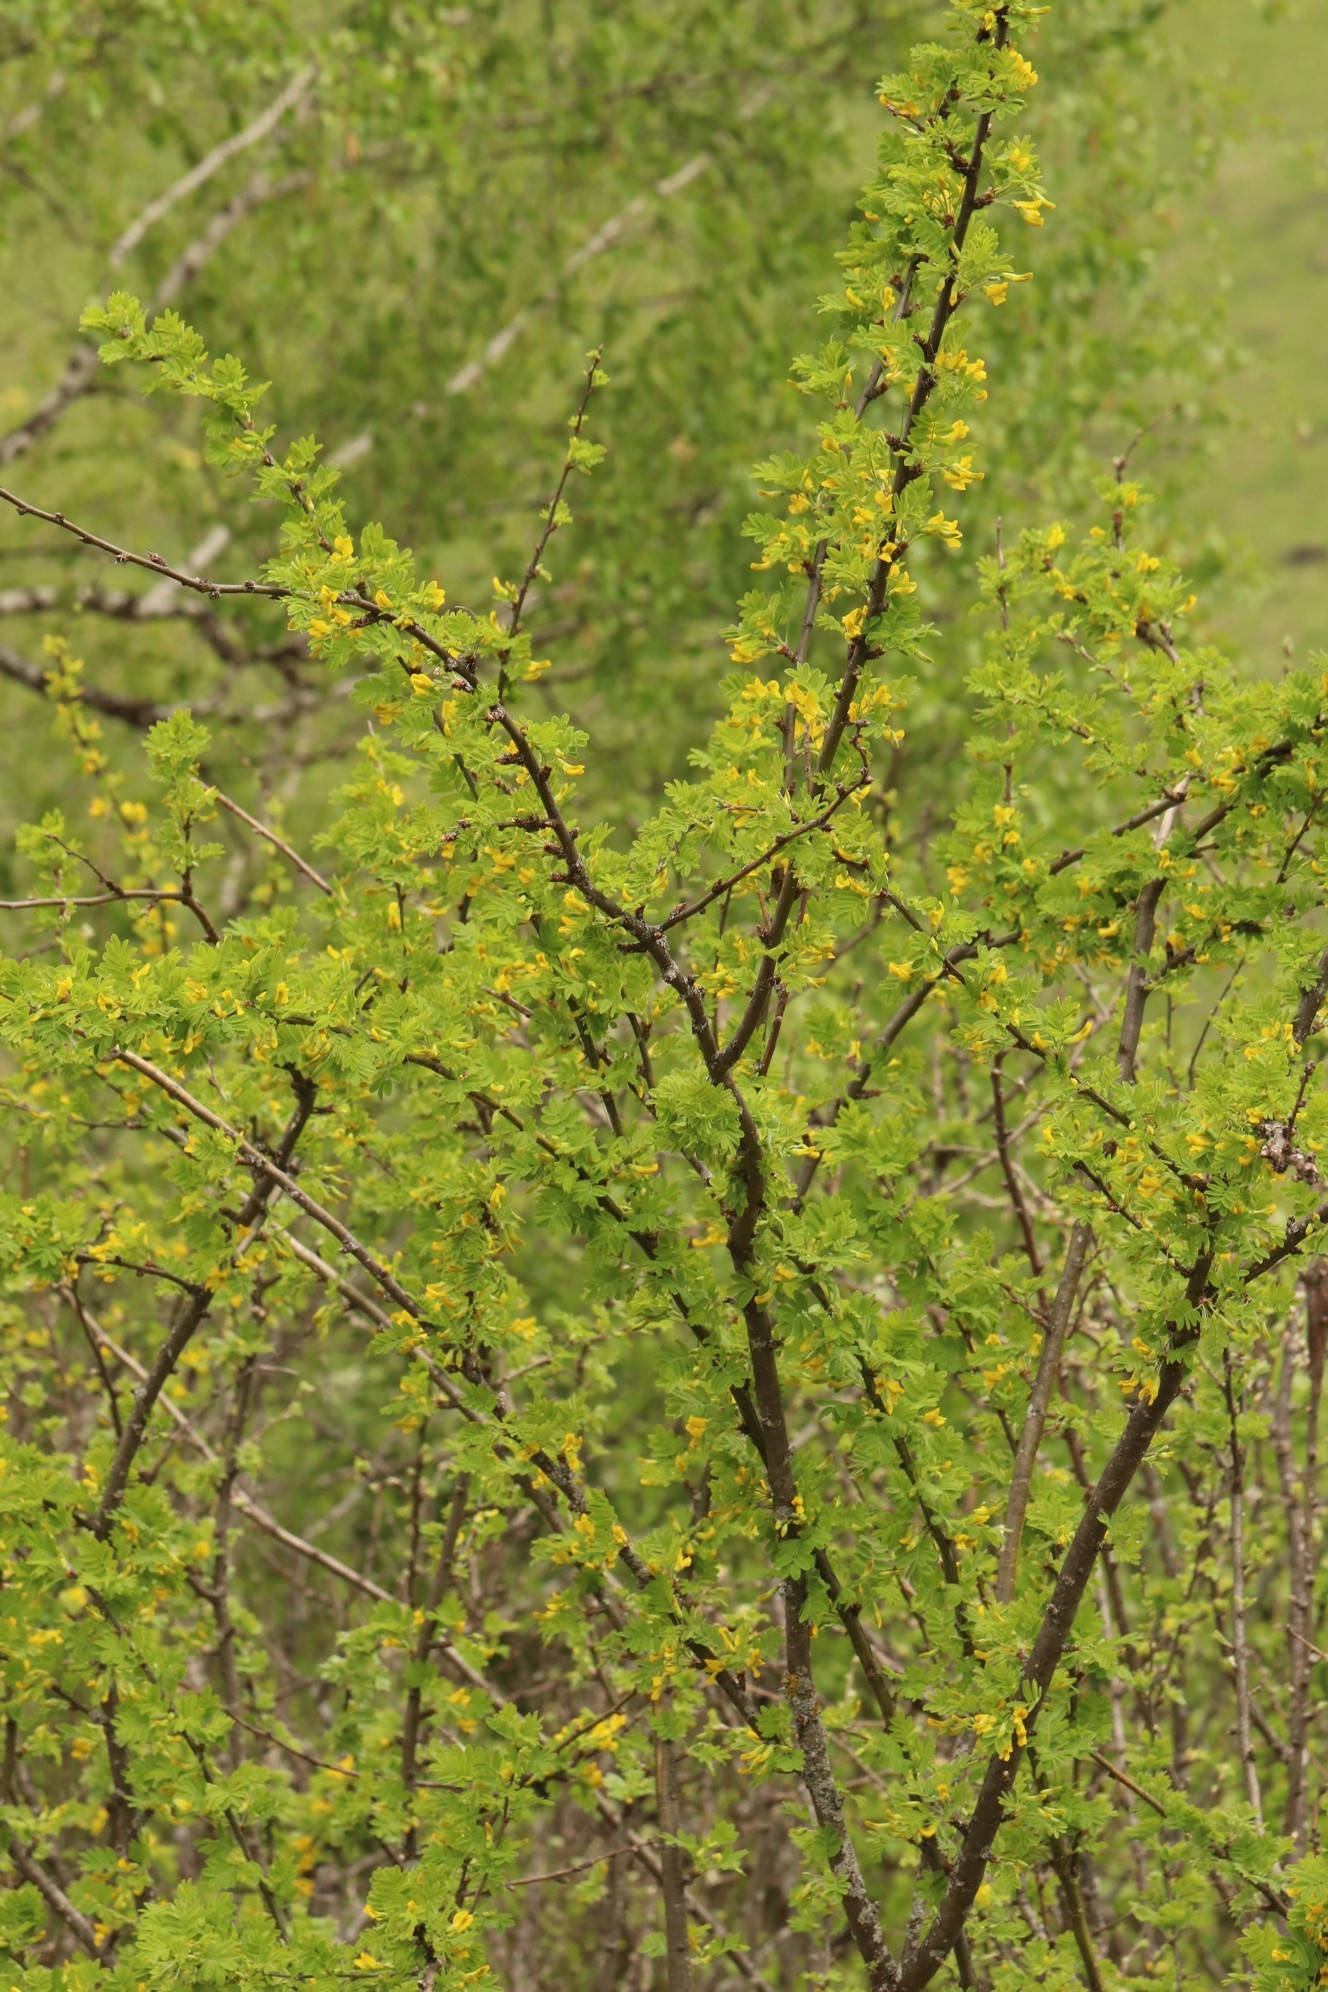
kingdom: Plantae
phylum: Tracheophyta
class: Magnoliopsida
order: Fabales
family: Fabaceae
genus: Caragana
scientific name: Caragana arborescens
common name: Siberian peashrub
